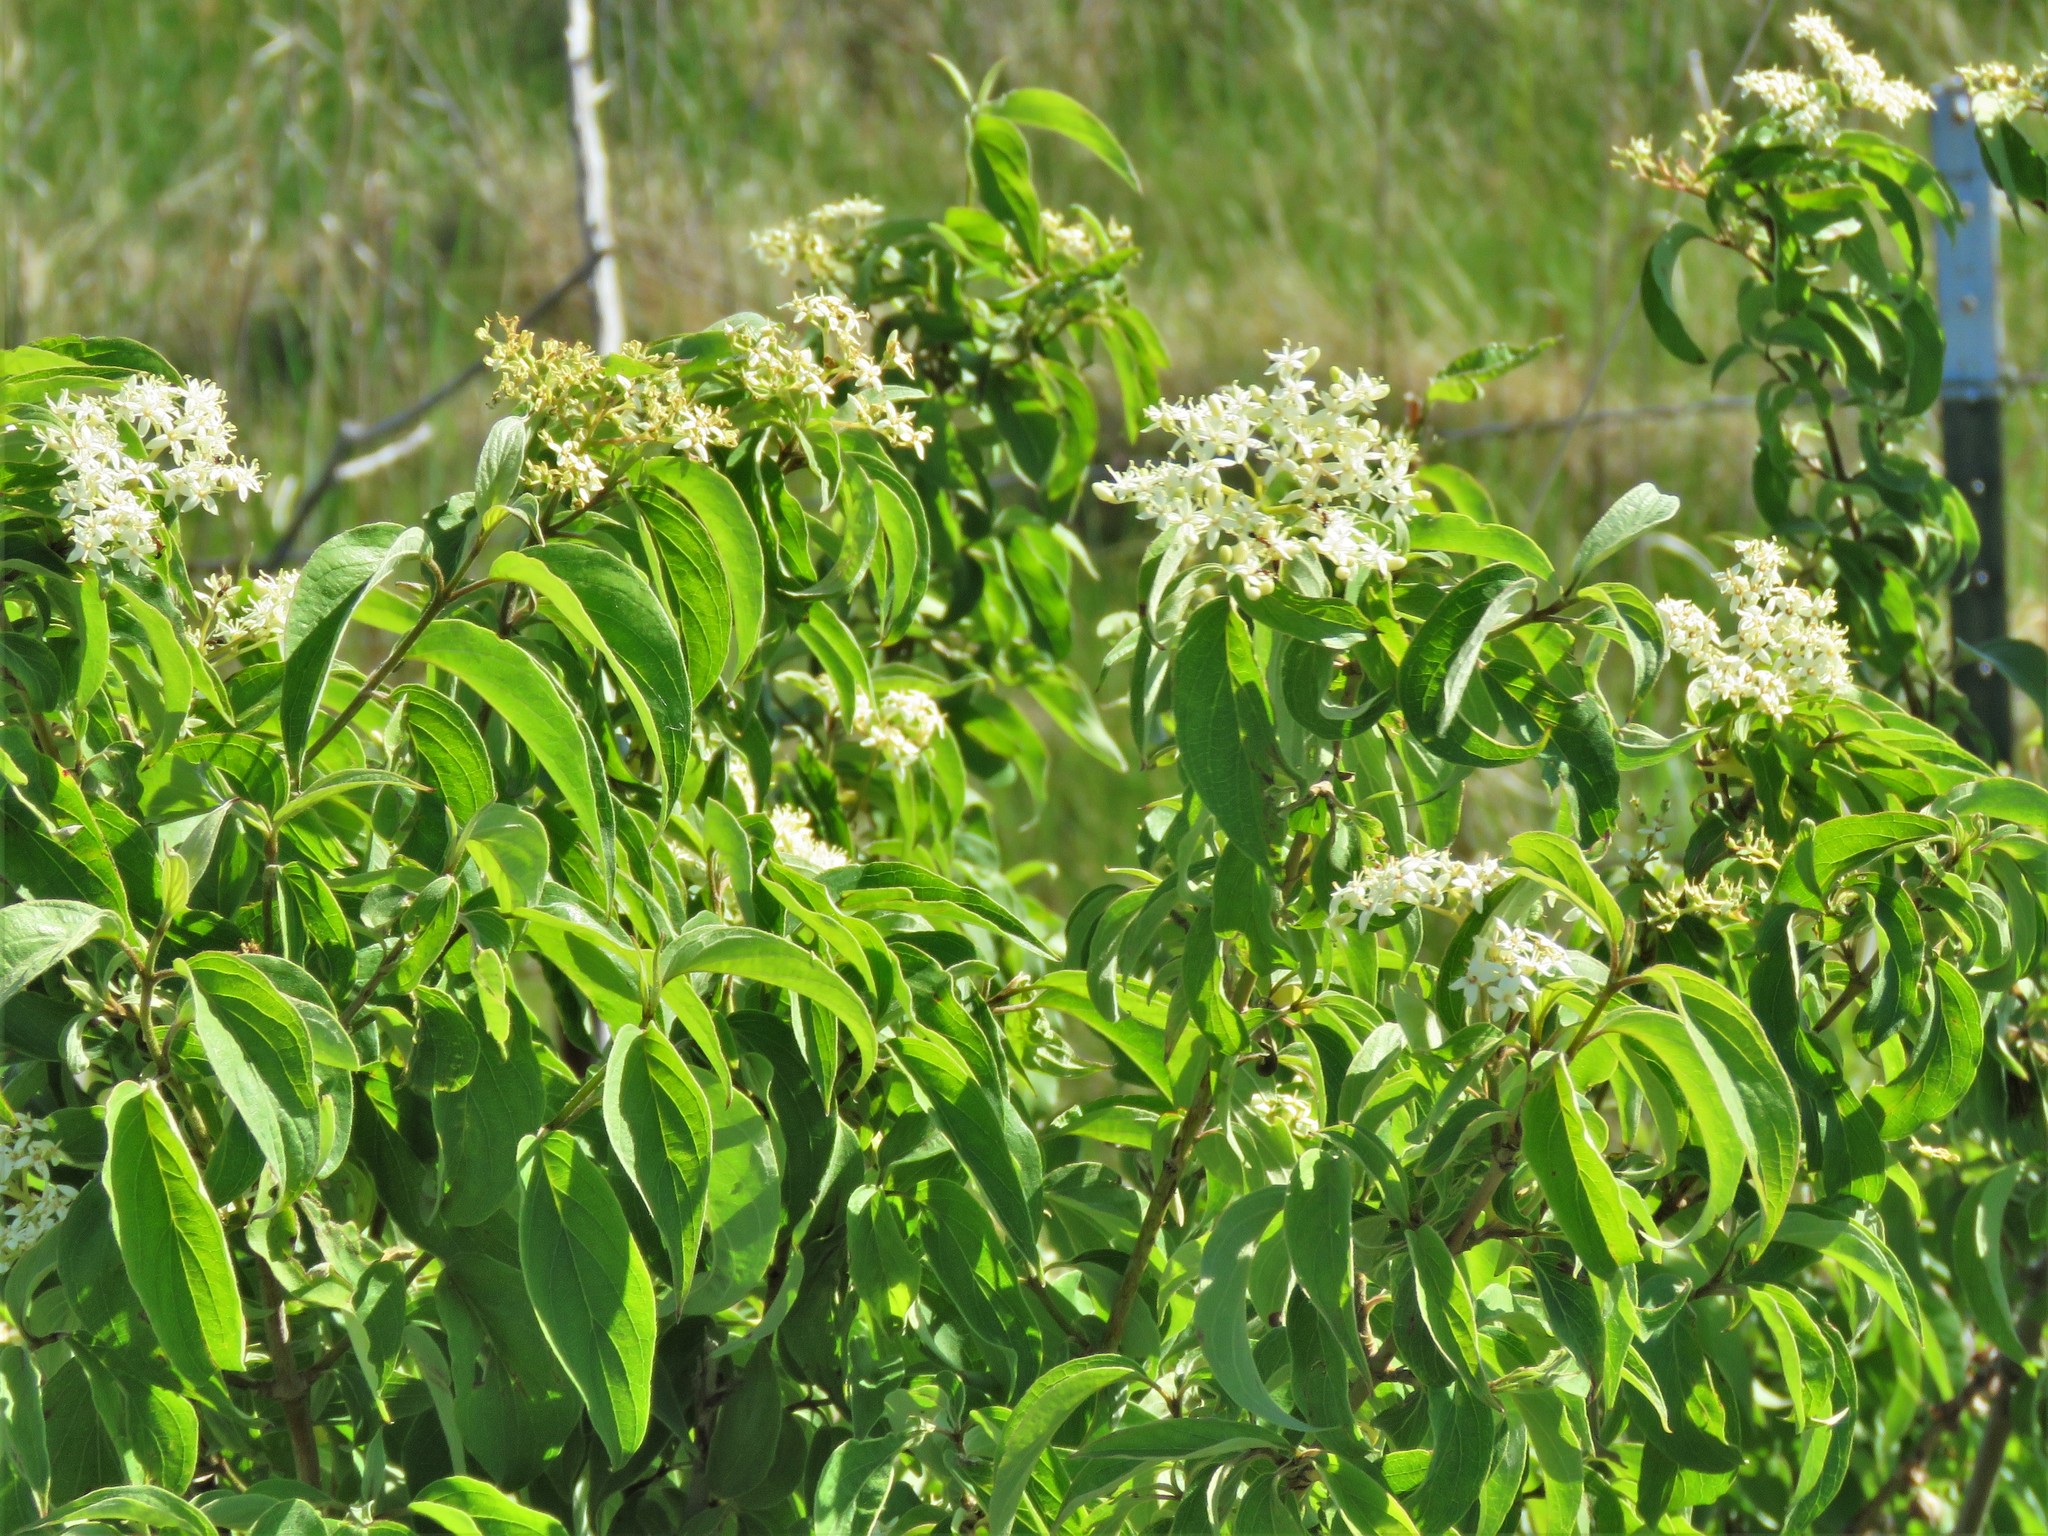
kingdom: Plantae
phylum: Tracheophyta
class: Magnoliopsida
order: Cornales
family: Cornaceae
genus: Cornus
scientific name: Cornus drummondii
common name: Rough-leaf dogwood
